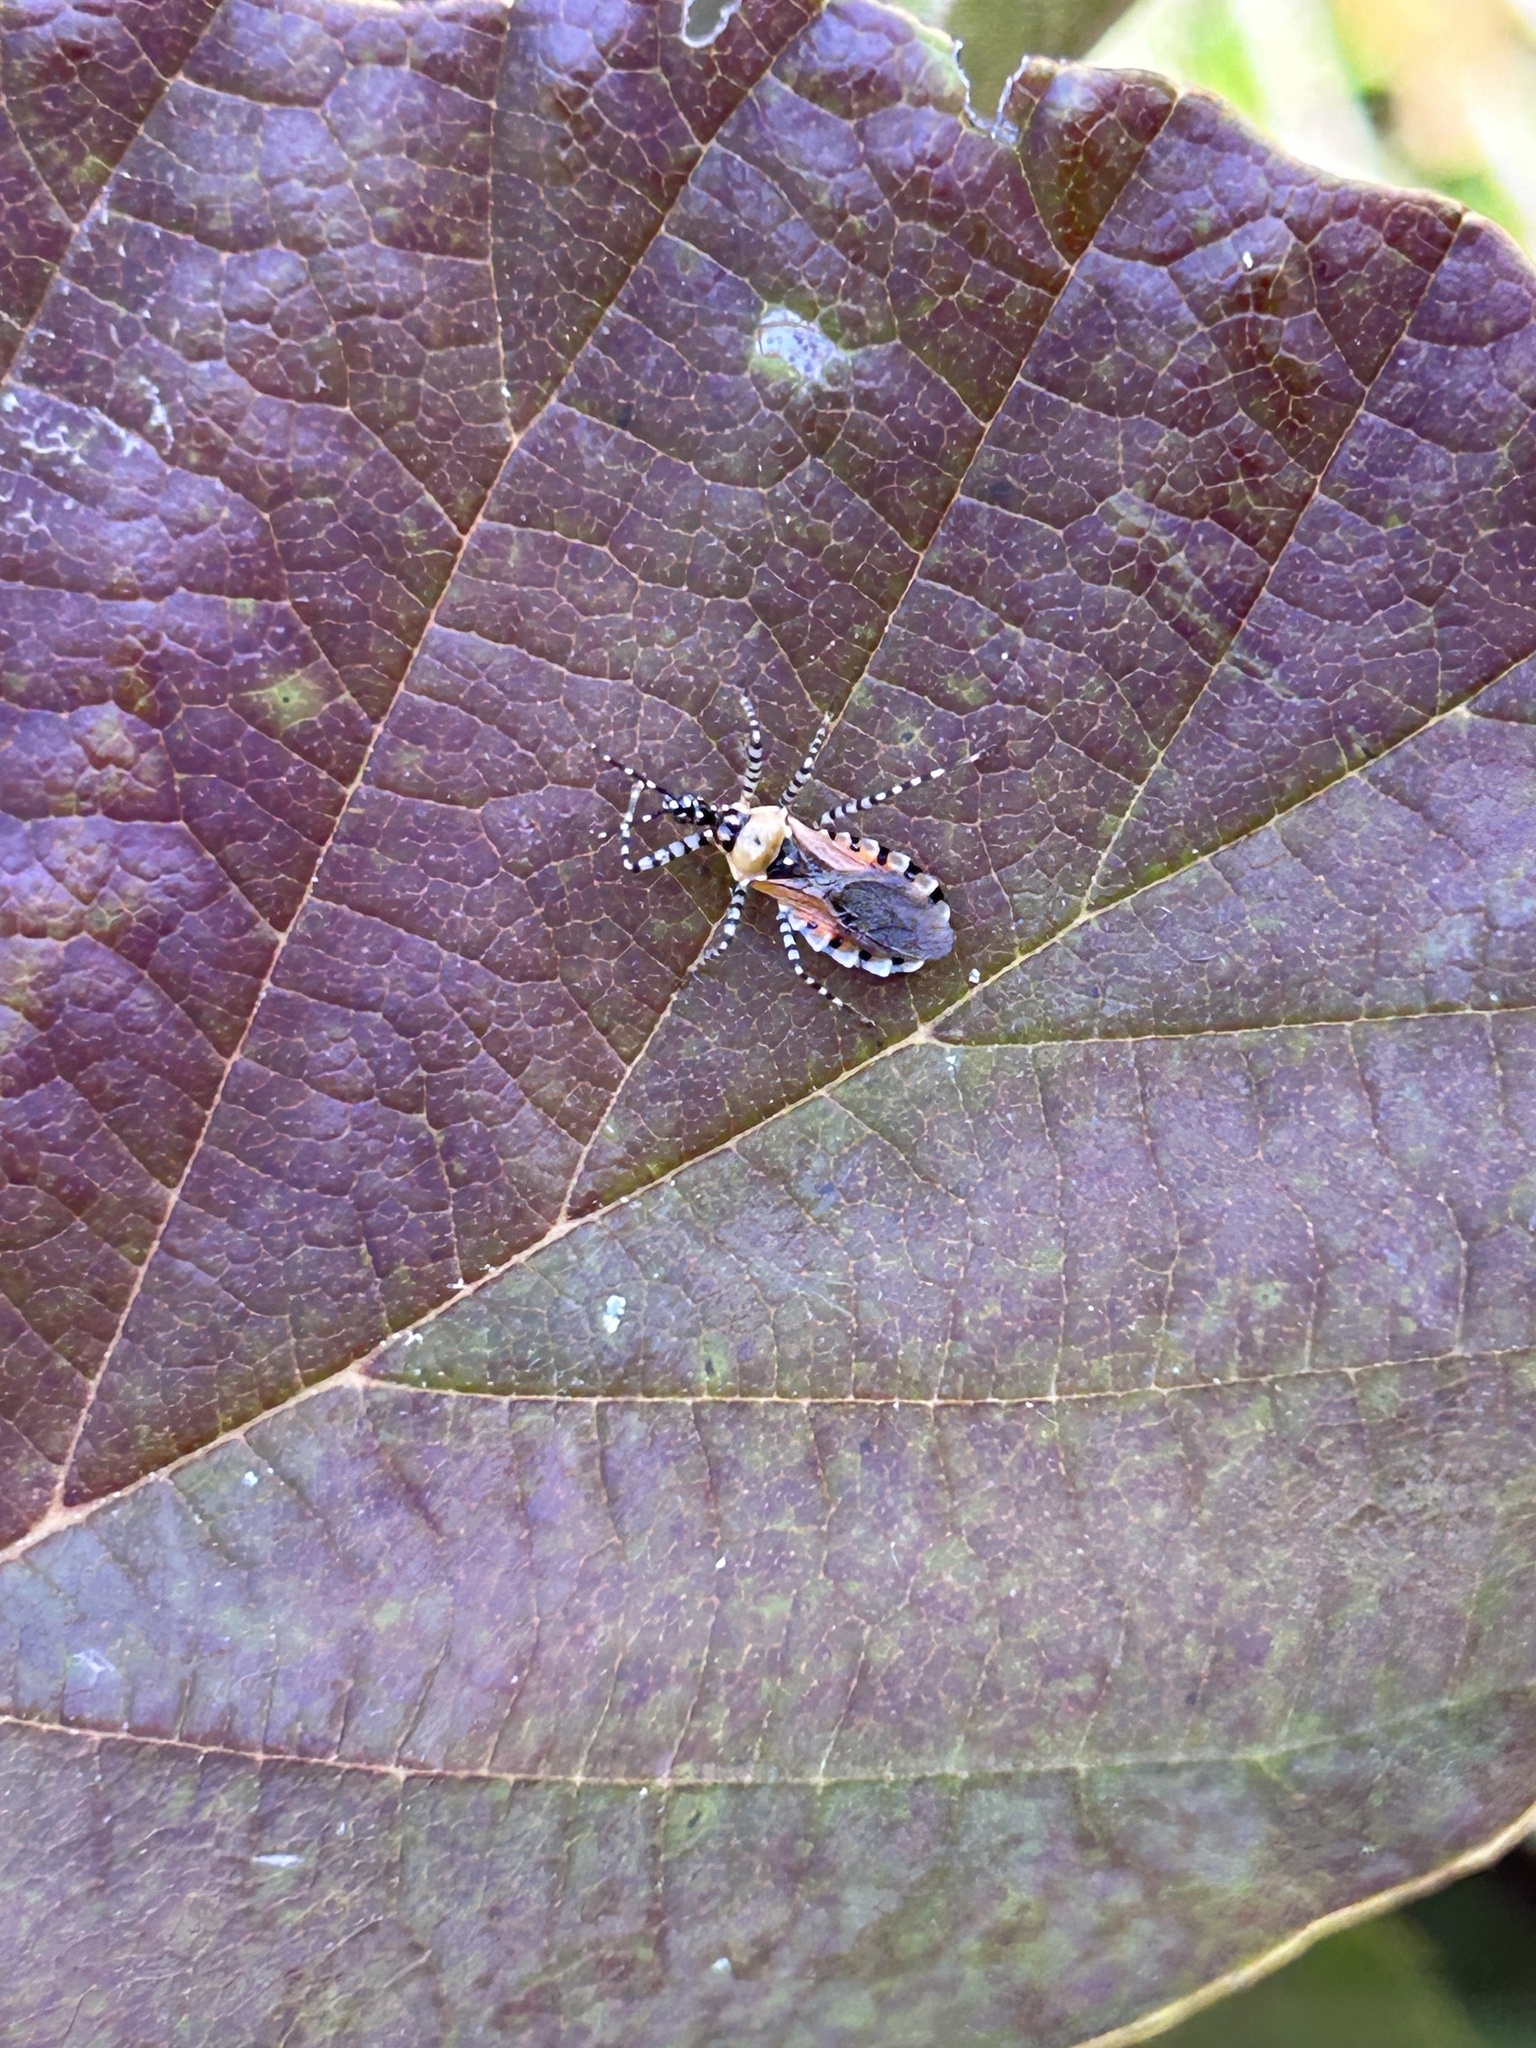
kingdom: Animalia
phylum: Arthropoda
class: Insecta
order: Hemiptera
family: Reduviidae
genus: Pselliopus
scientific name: Pselliopus cinctus
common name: Ringed assassin bug
